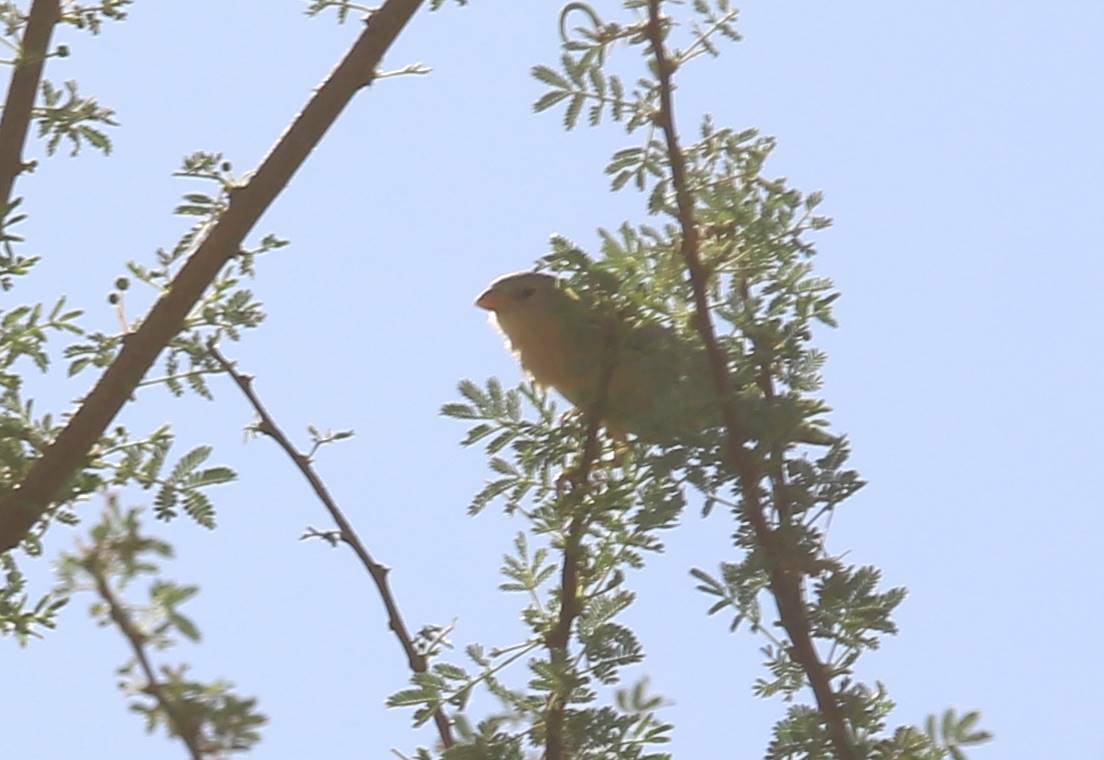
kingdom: Animalia
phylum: Chordata
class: Aves
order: Passeriformes
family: Passeridae
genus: Passer
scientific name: Passer luteus
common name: Sudan golden sparrow
